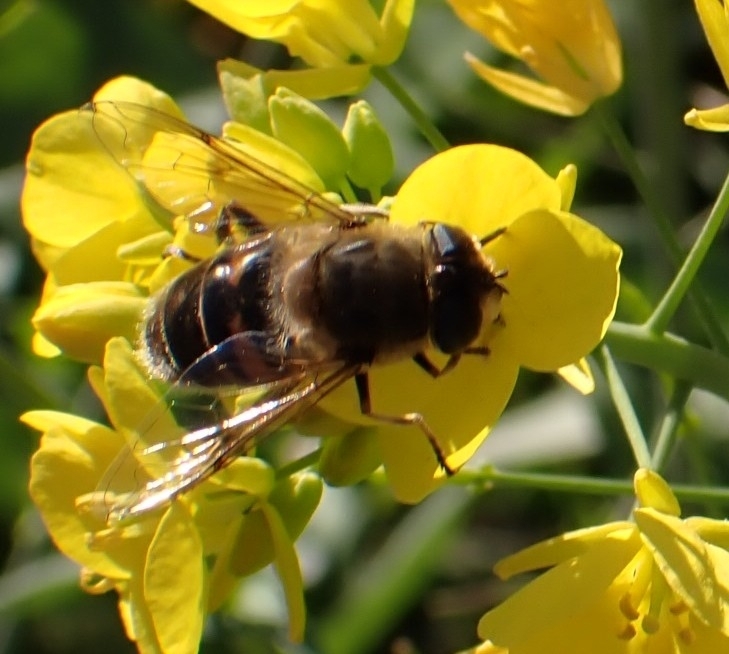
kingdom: Animalia
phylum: Arthropoda
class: Insecta
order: Diptera
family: Syrphidae
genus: Eristalis
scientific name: Eristalis tenax
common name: Drone fly
